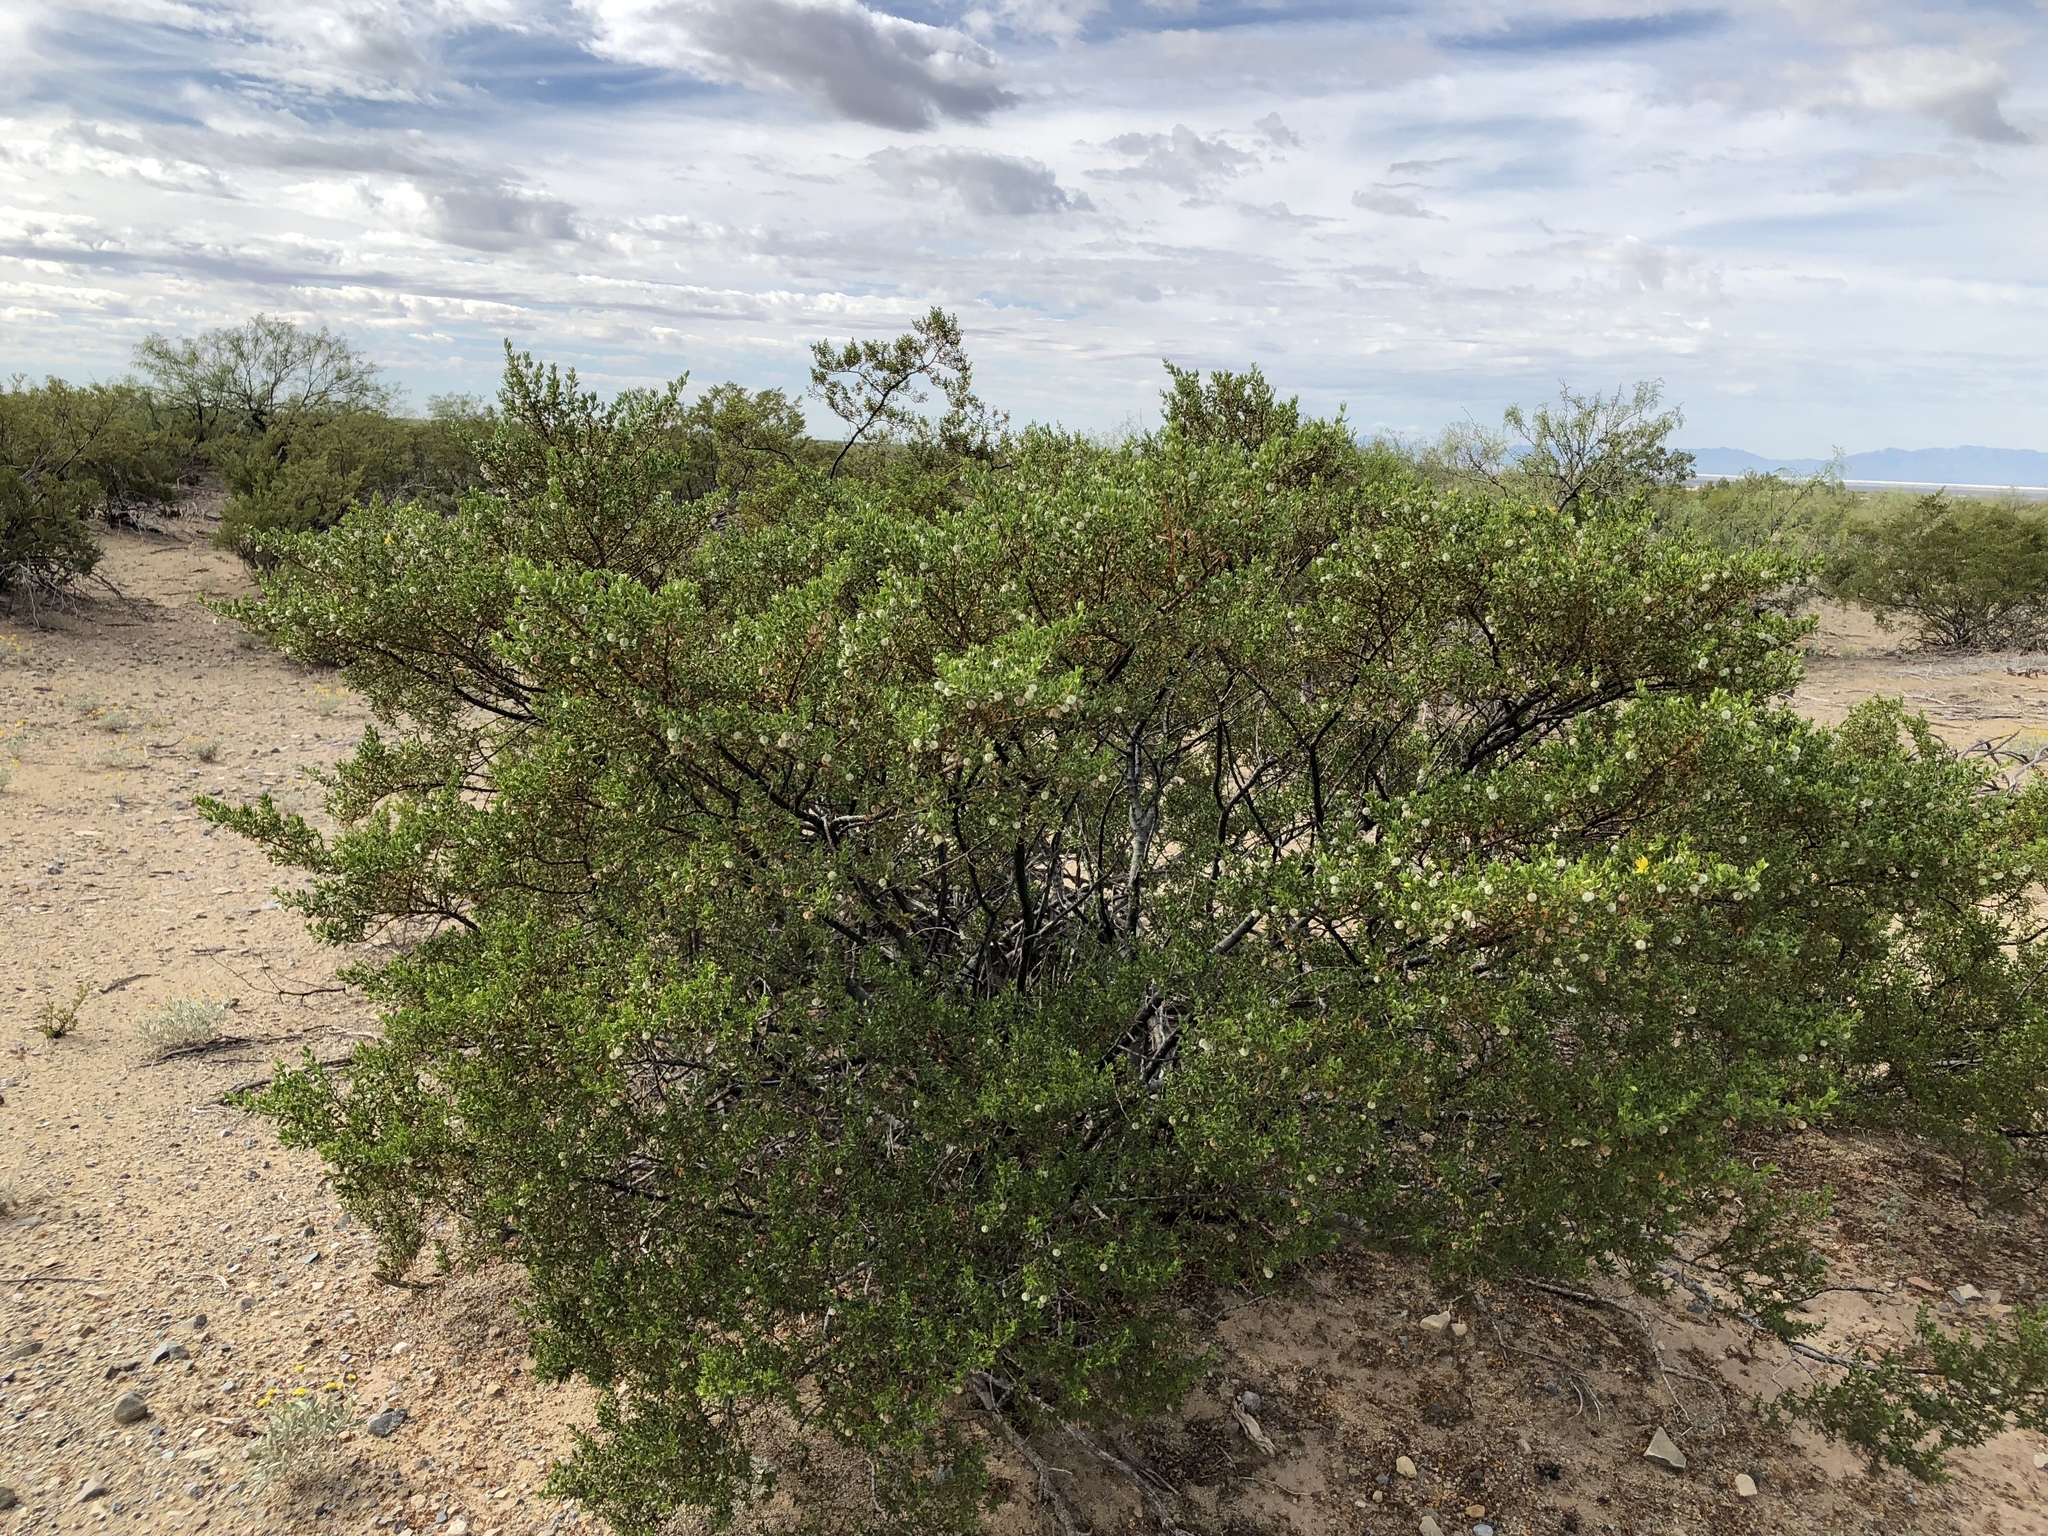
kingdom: Plantae
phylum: Tracheophyta
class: Magnoliopsida
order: Zygophyllales
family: Zygophyllaceae
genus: Larrea
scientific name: Larrea tridentata
